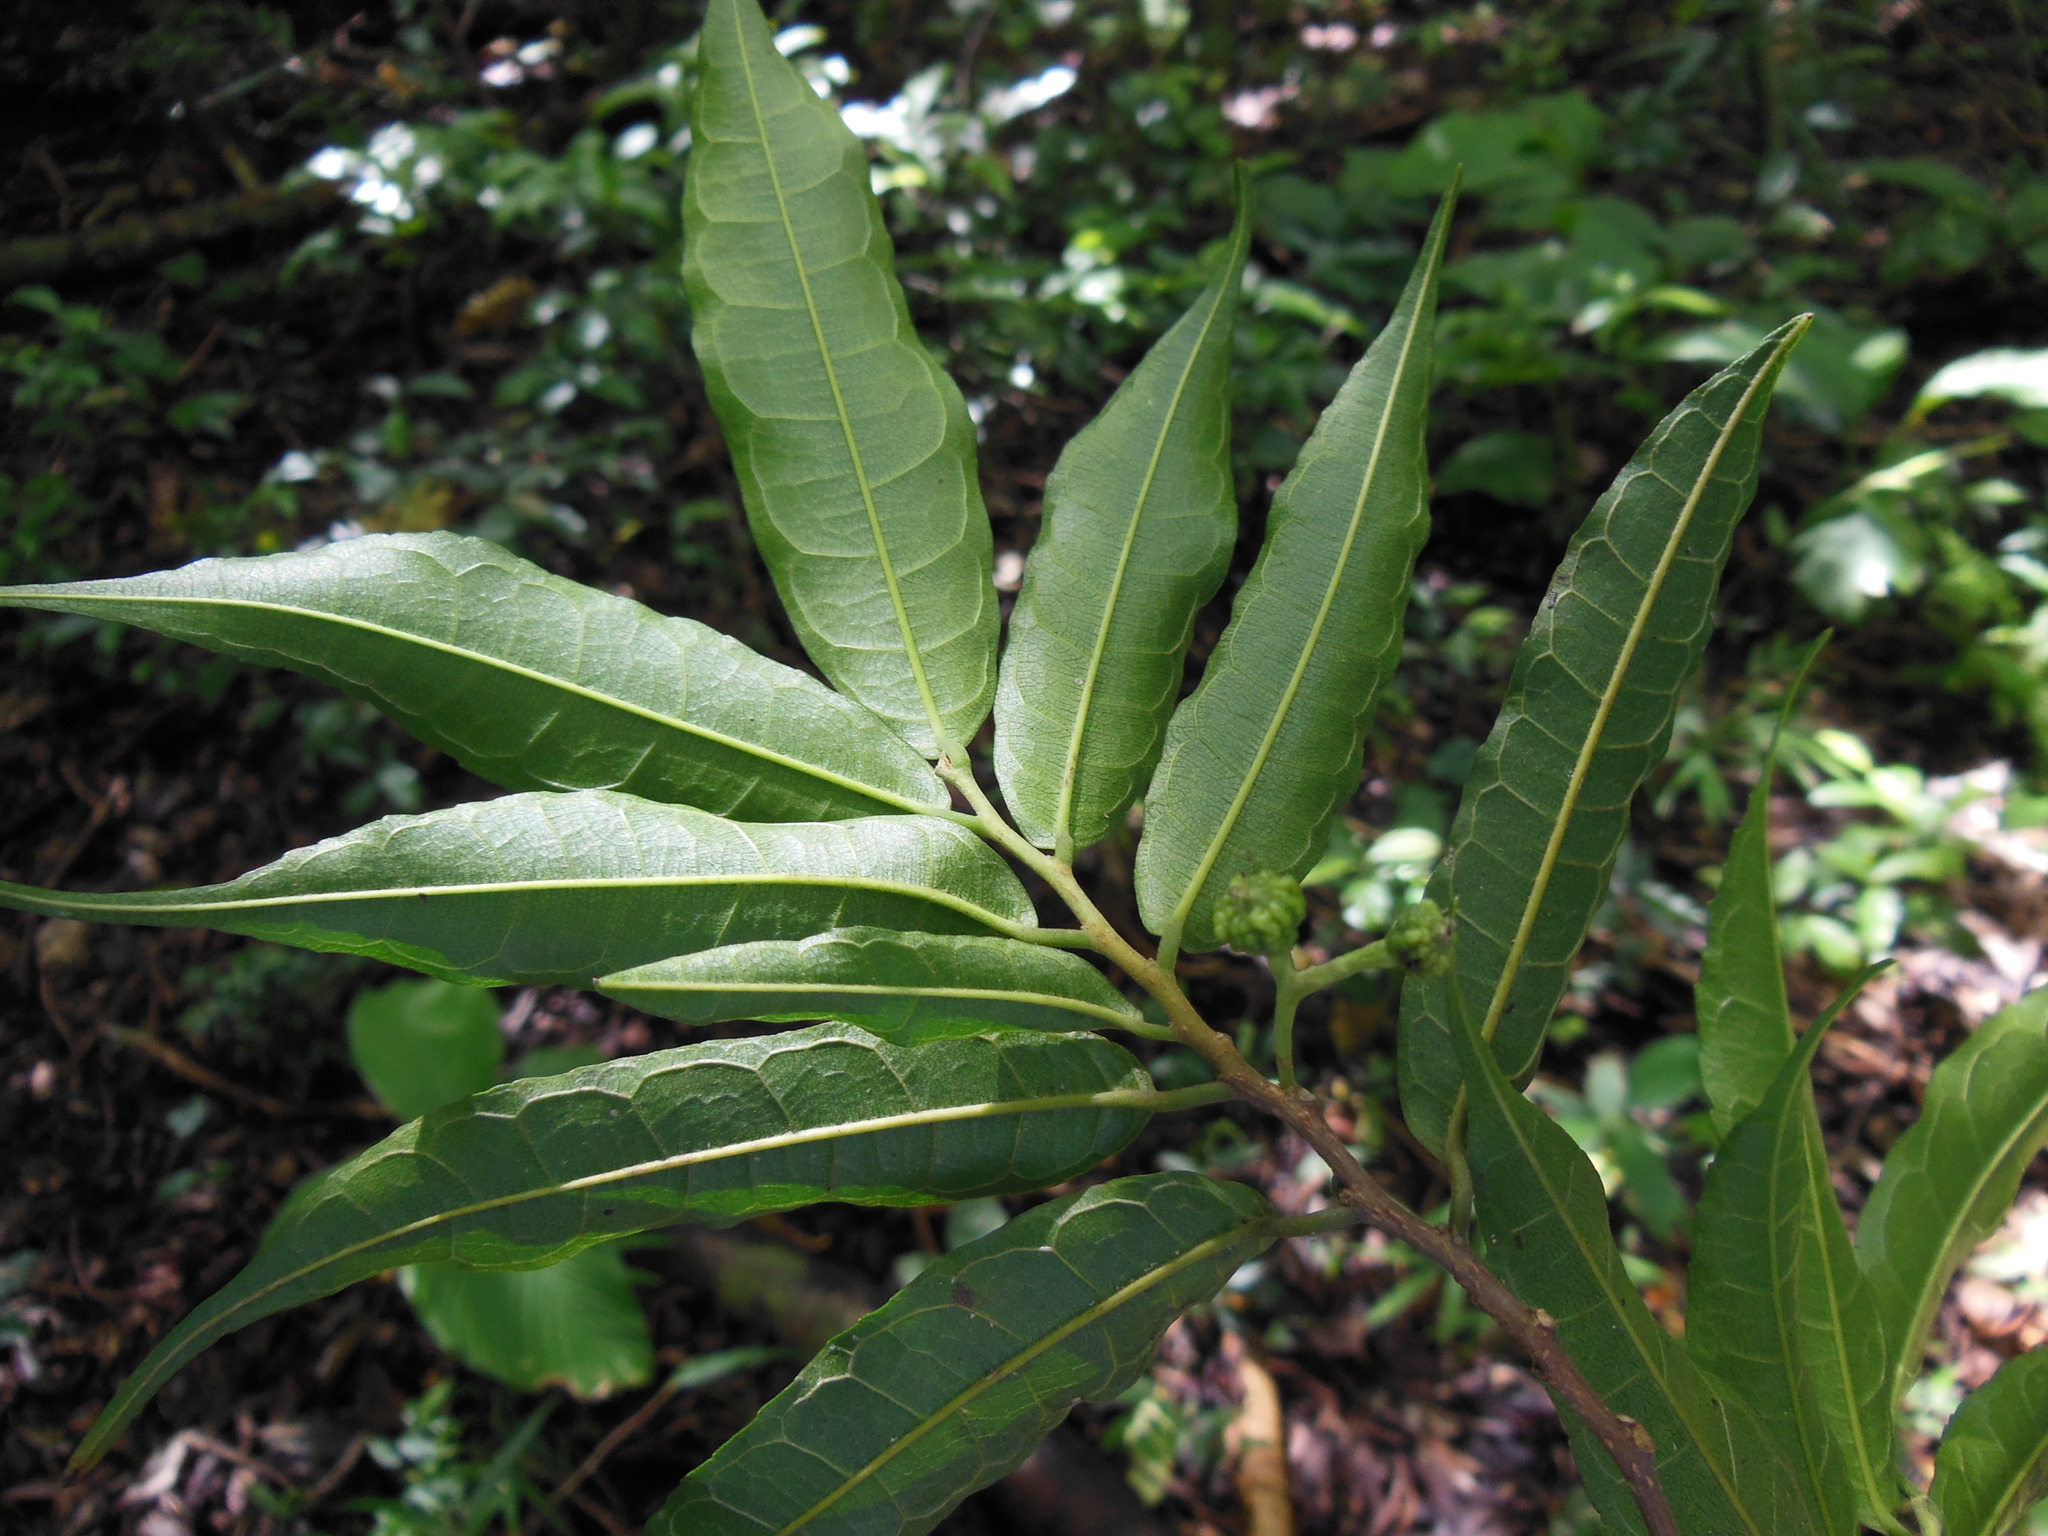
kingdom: Plantae
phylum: Tracheophyta
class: Magnoliopsida
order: Rosales
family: Moraceae
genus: Trophis
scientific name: Trophis racemosa
